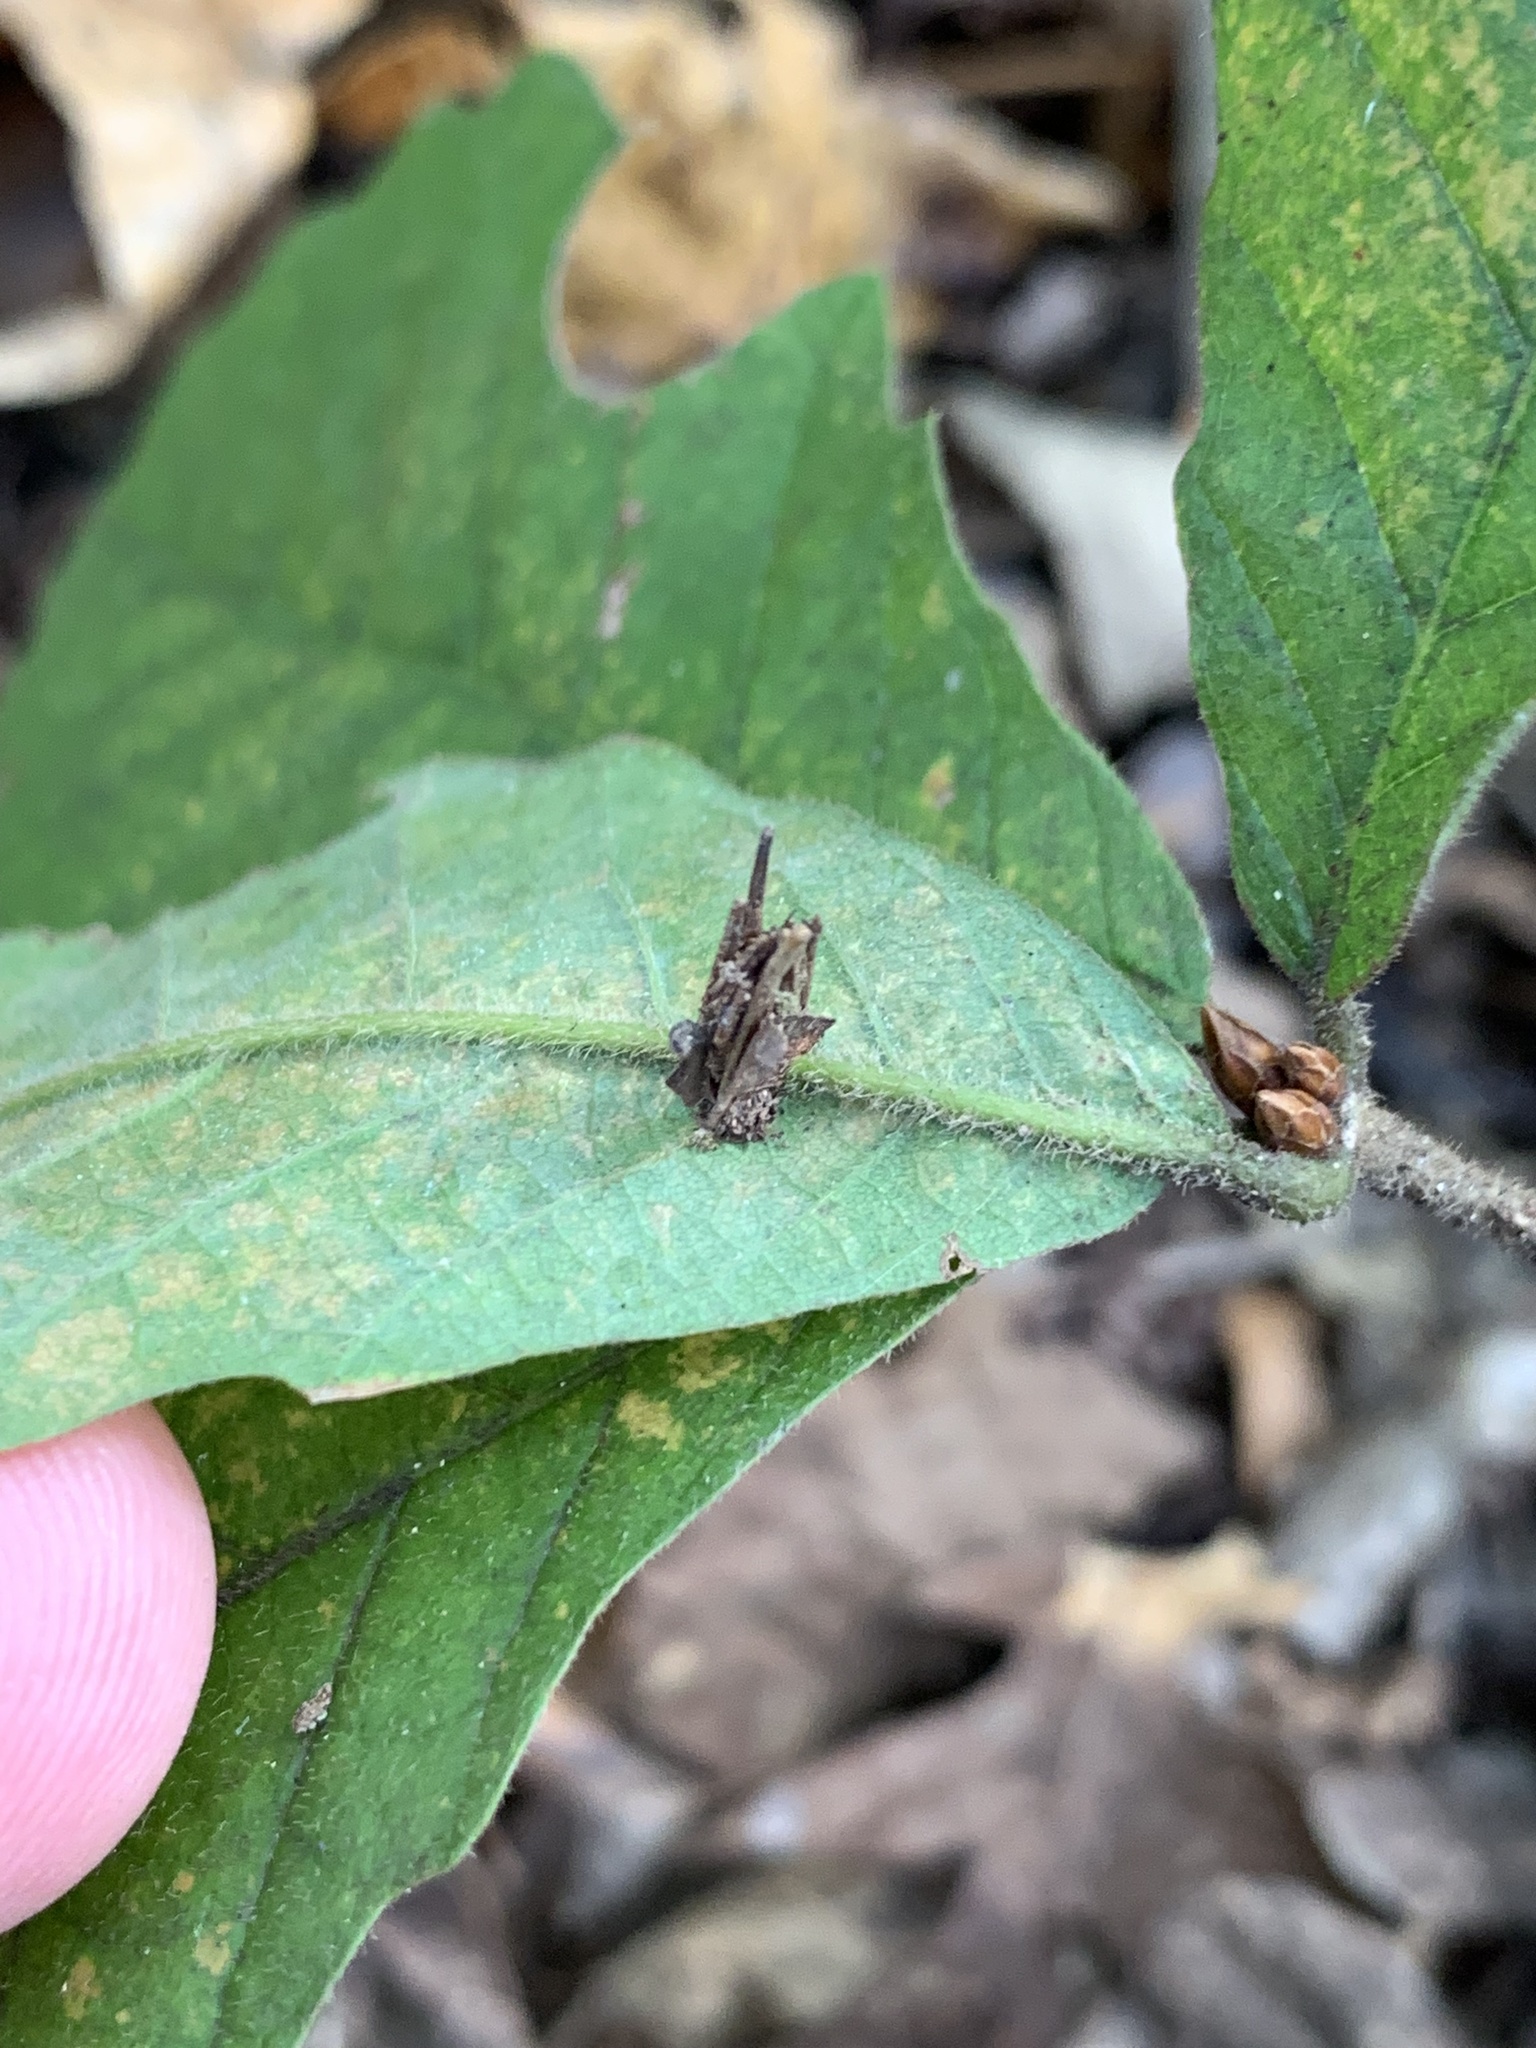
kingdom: Animalia
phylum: Arthropoda
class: Insecta
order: Lepidoptera
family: Psychidae
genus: Psyche
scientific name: Psyche casta
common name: Common sweep
